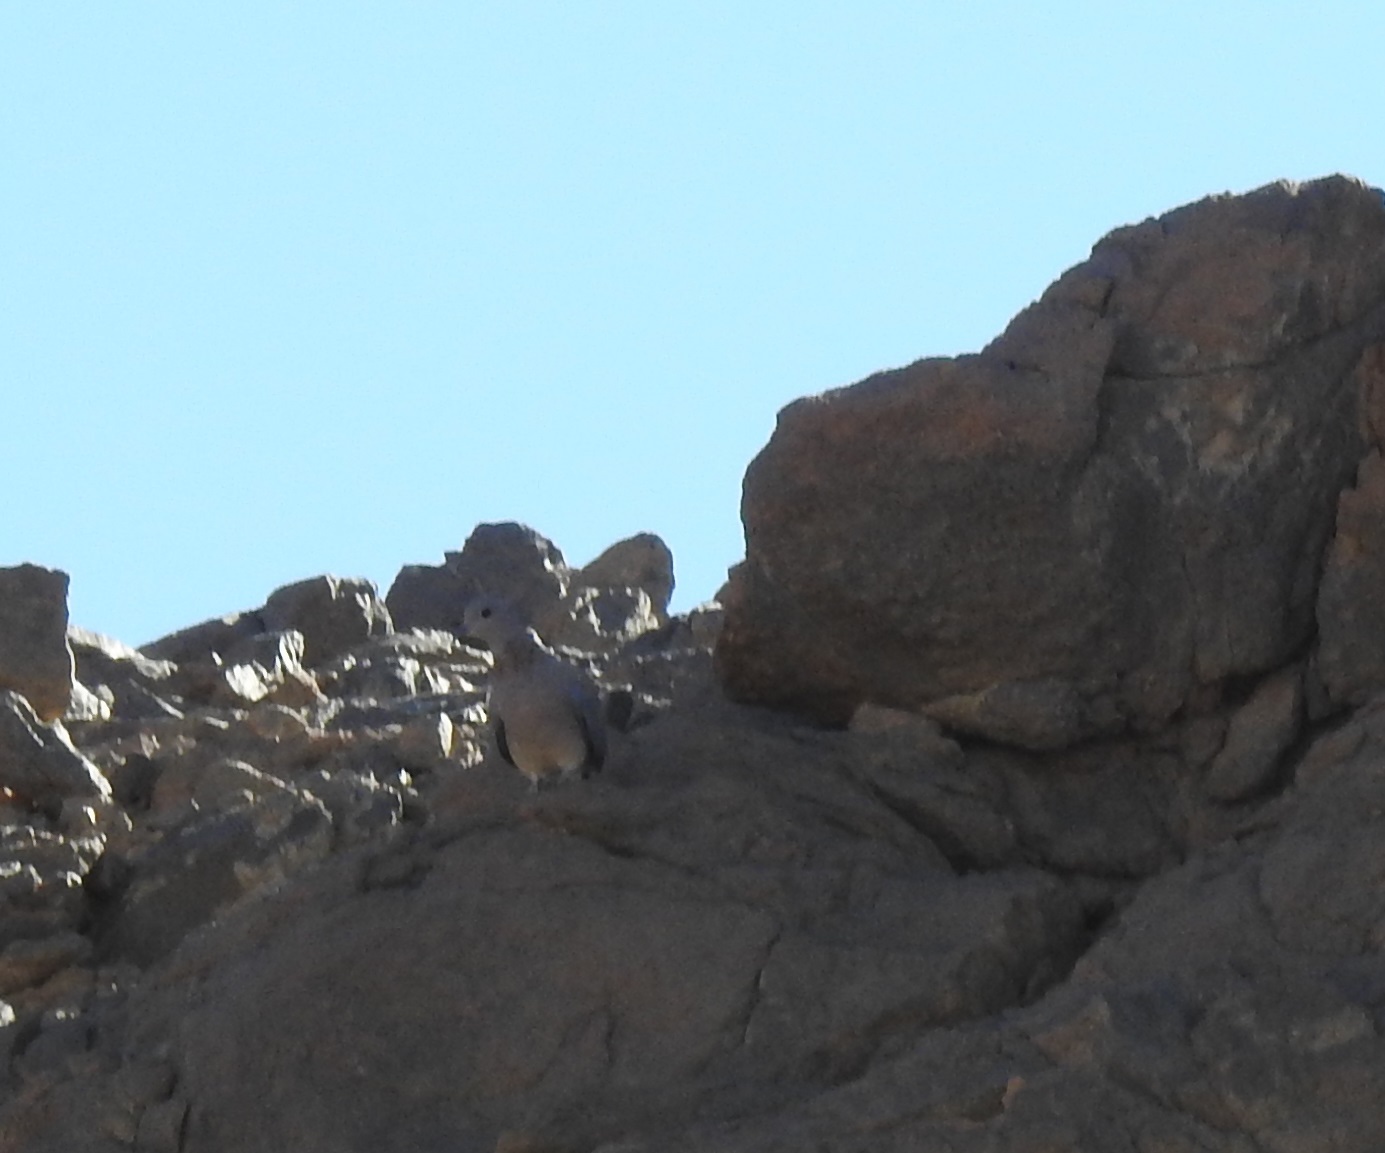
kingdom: Animalia
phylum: Chordata
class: Aves
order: Columbiformes
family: Columbidae
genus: Spilopelia
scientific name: Spilopelia senegalensis
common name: Laughing dove
